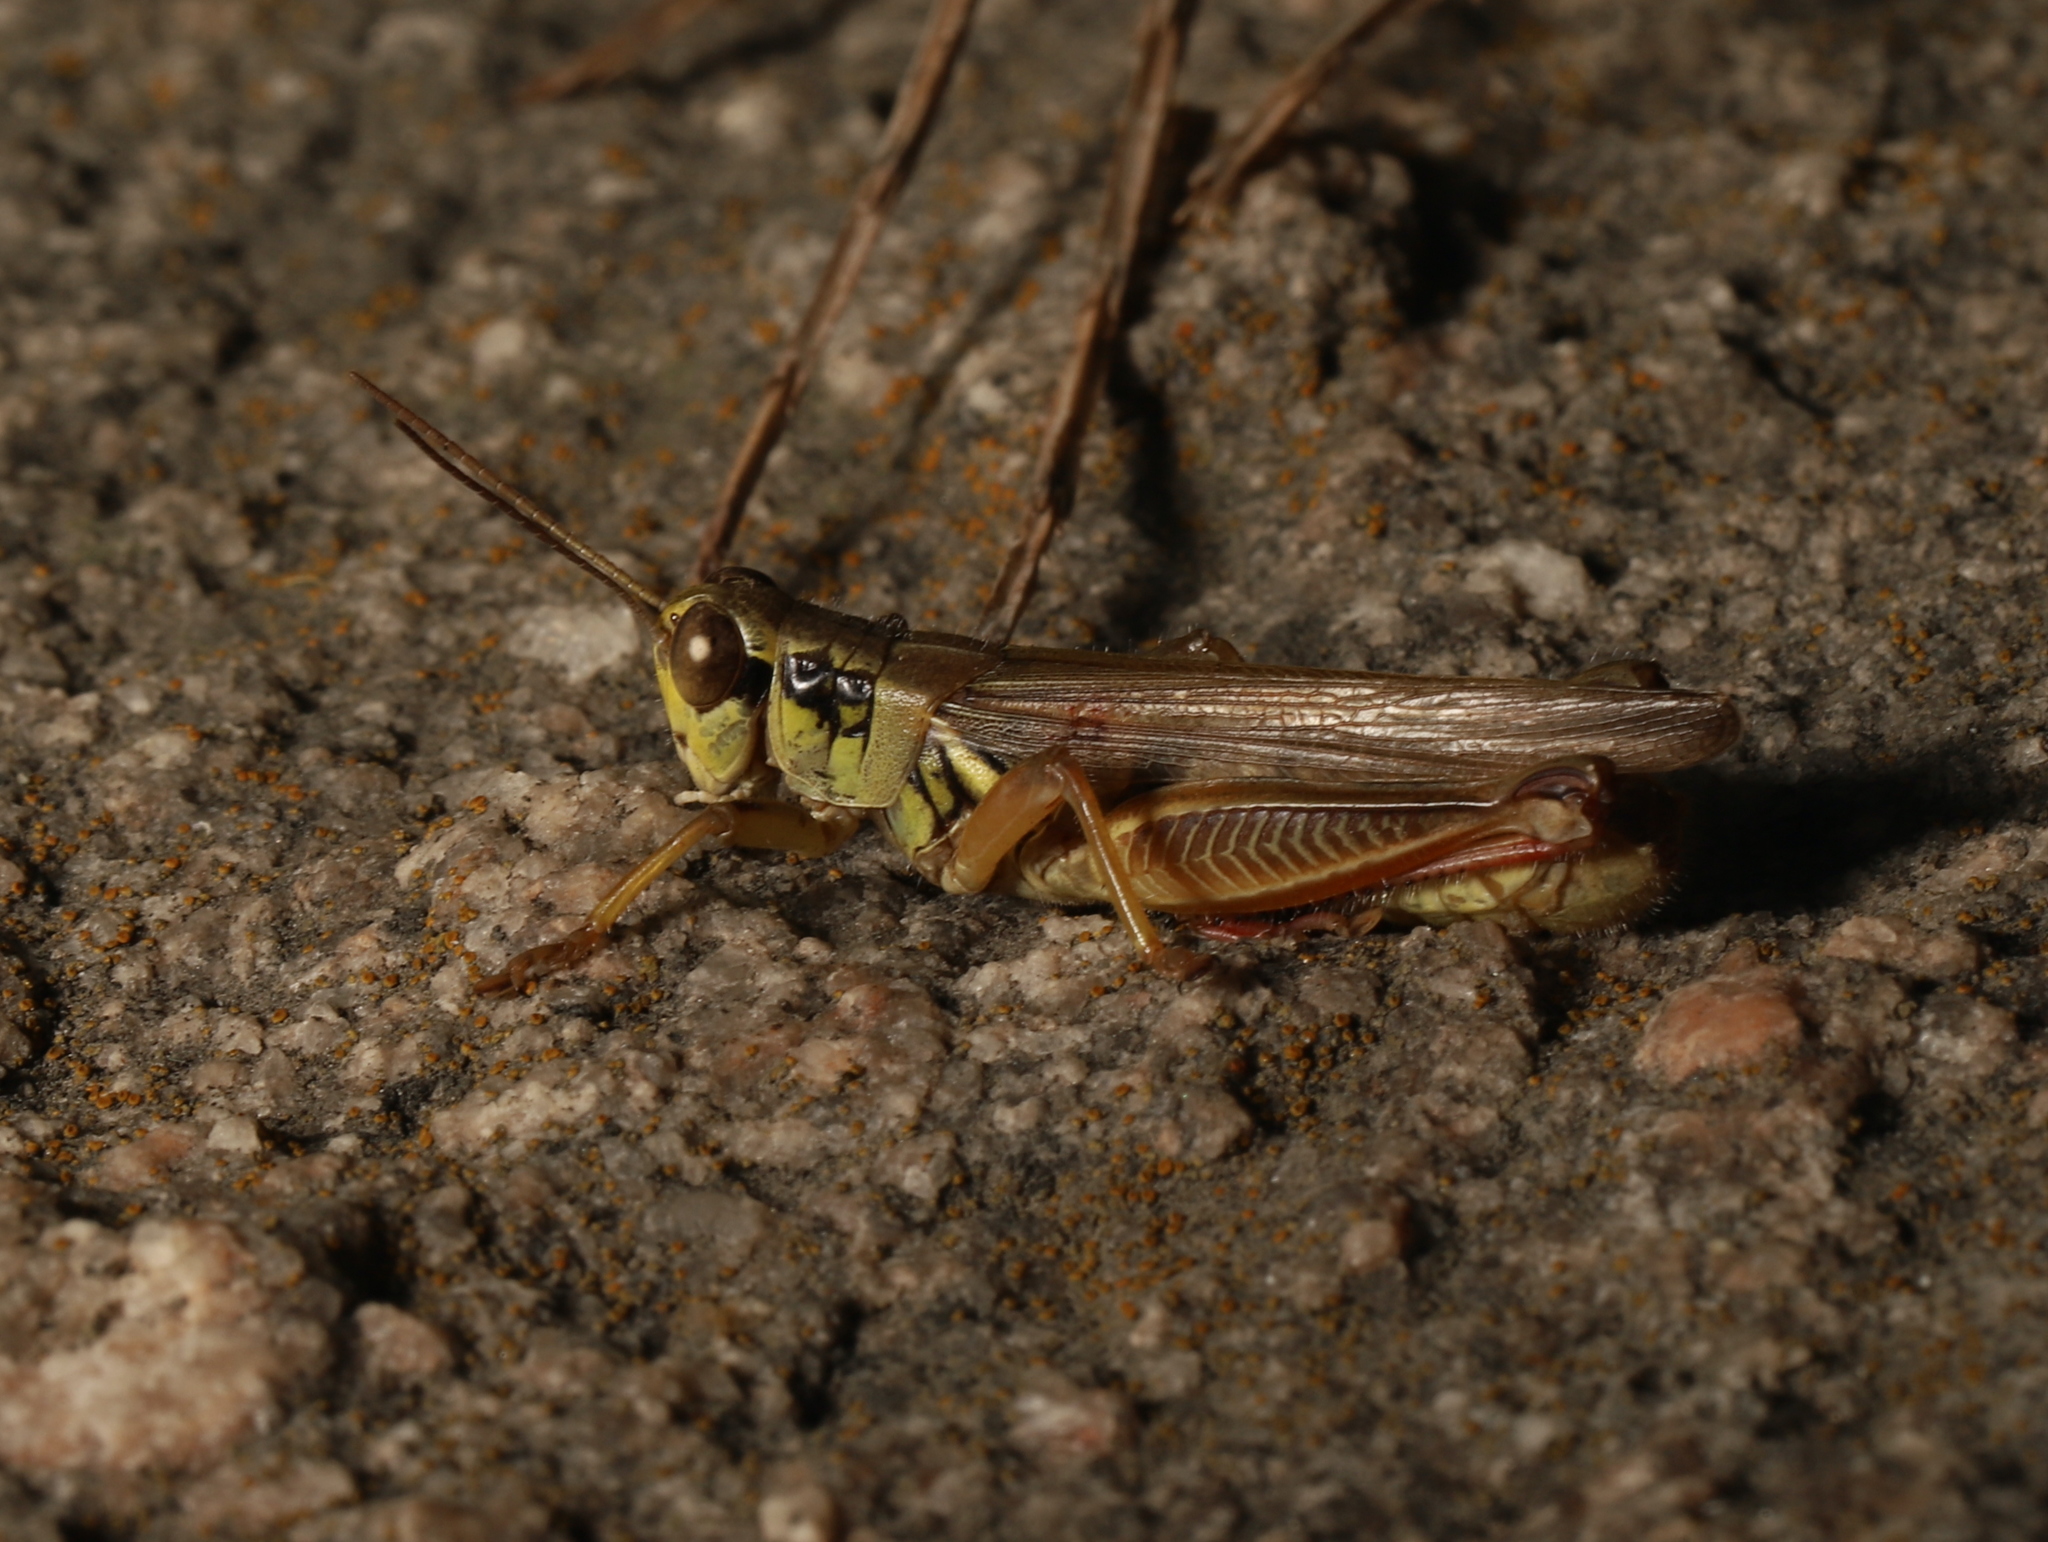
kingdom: Animalia
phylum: Arthropoda
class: Insecta
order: Orthoptera
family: Acrididae
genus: Melanoplus
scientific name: Melanoplus femurrubrum
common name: Red-legged grasshopper
